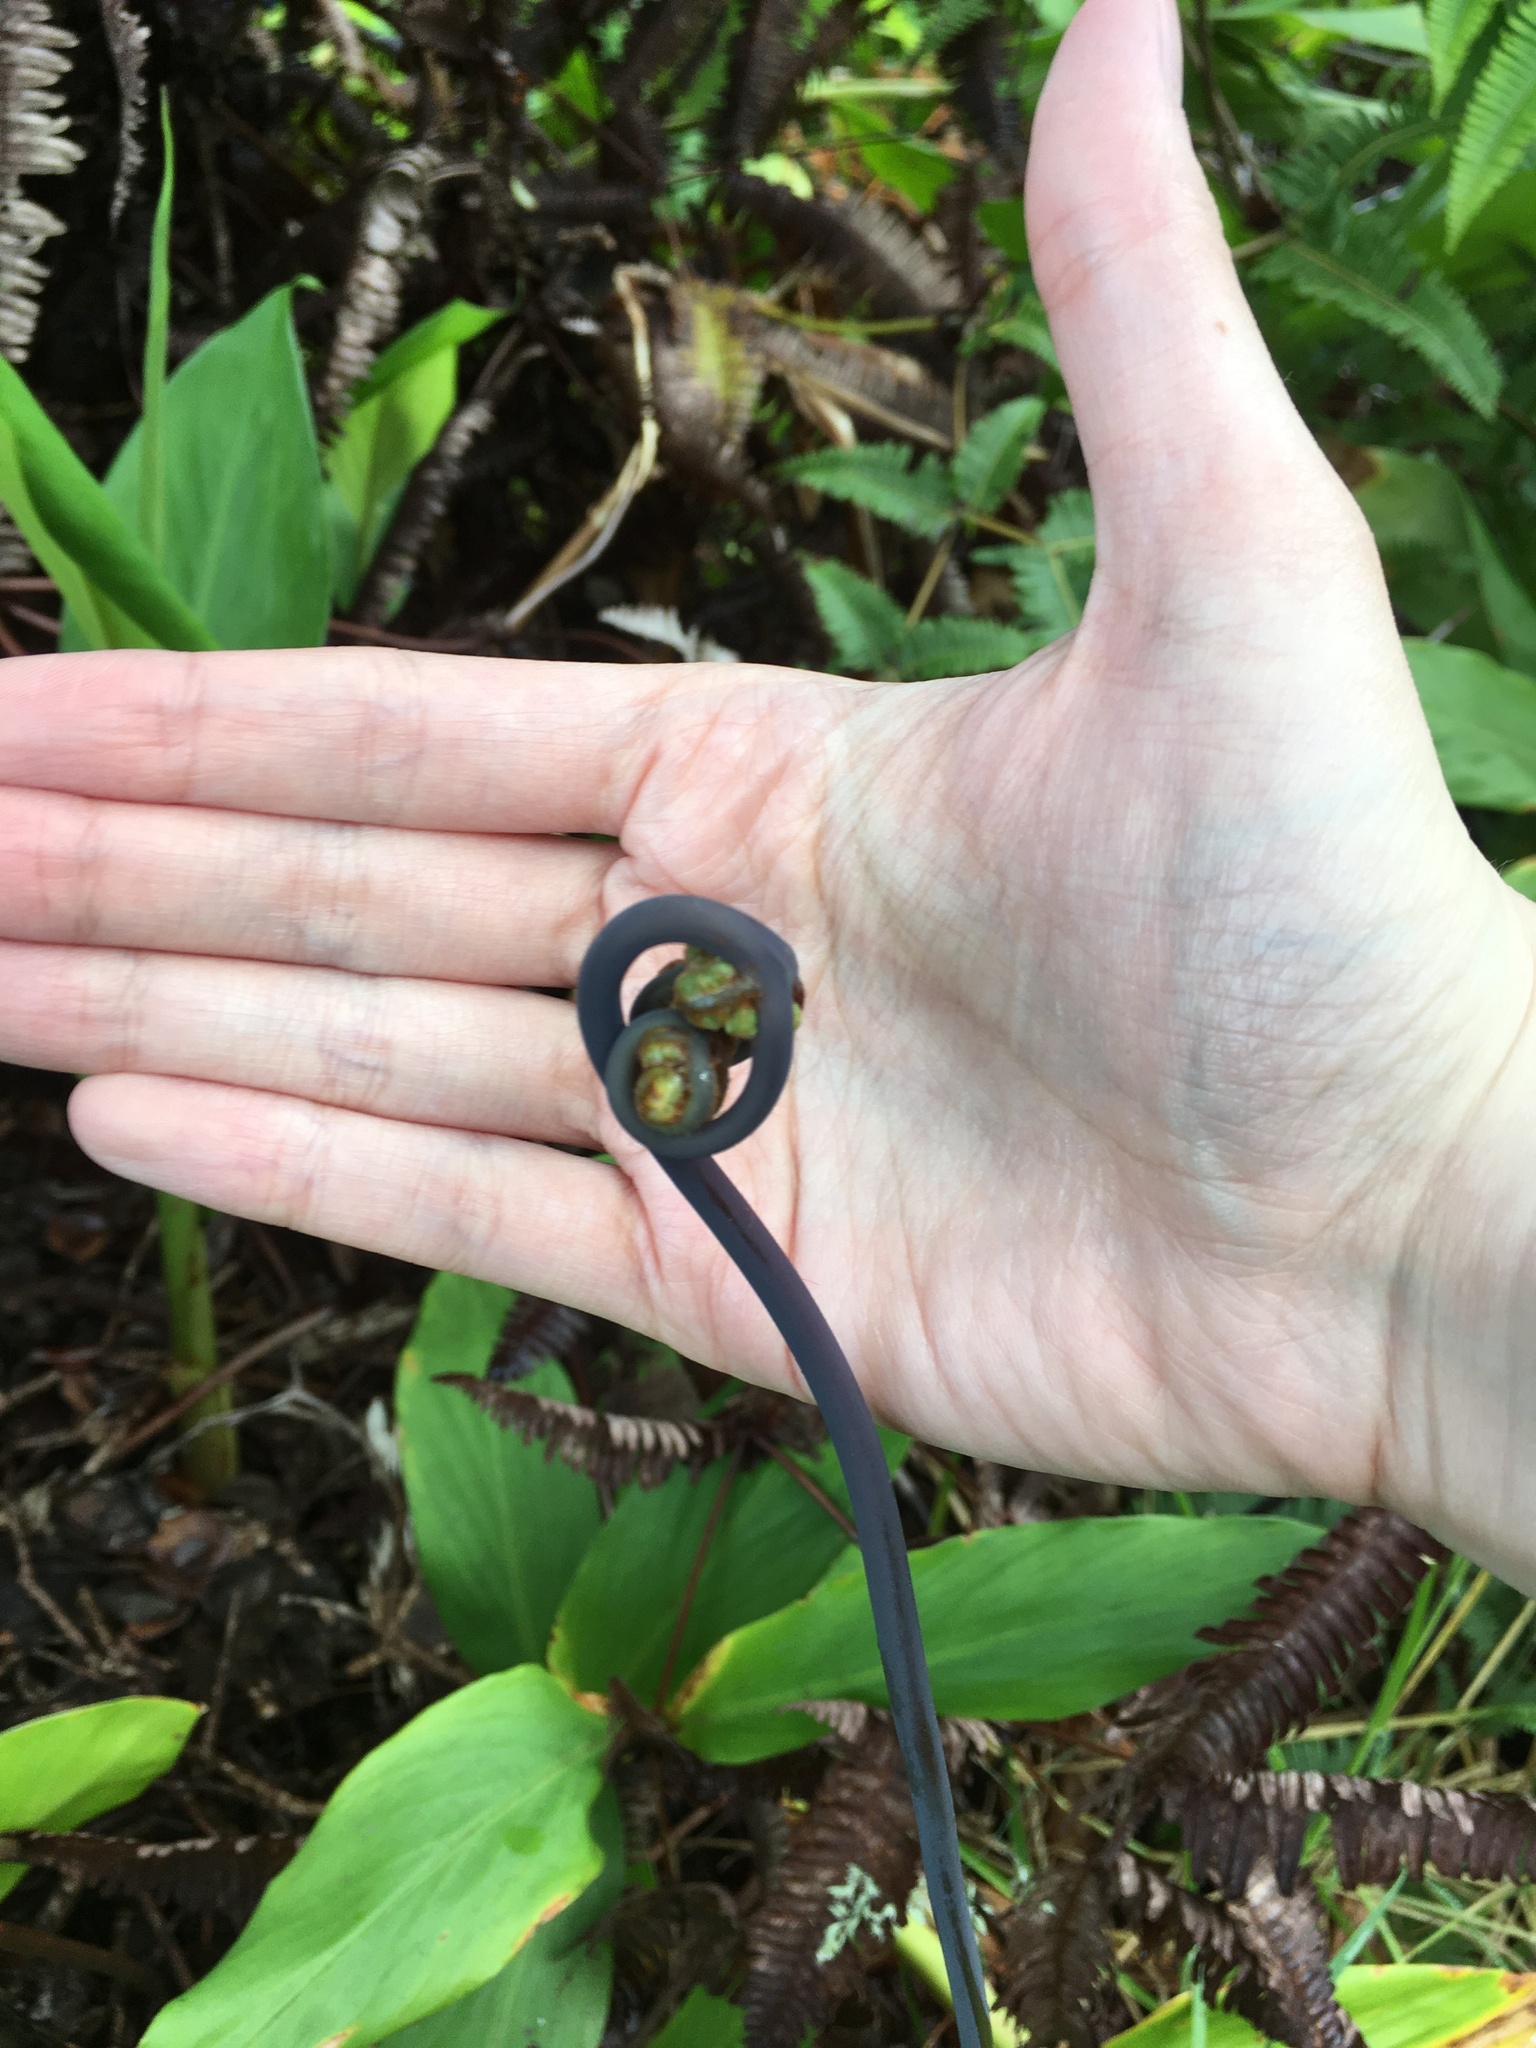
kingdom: Plantae
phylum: Tracheophyta
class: Polypodiopsida
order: Gleicheniales
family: Gleicheniaceae
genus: Dicranopteris
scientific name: Dicranopteris linearis
